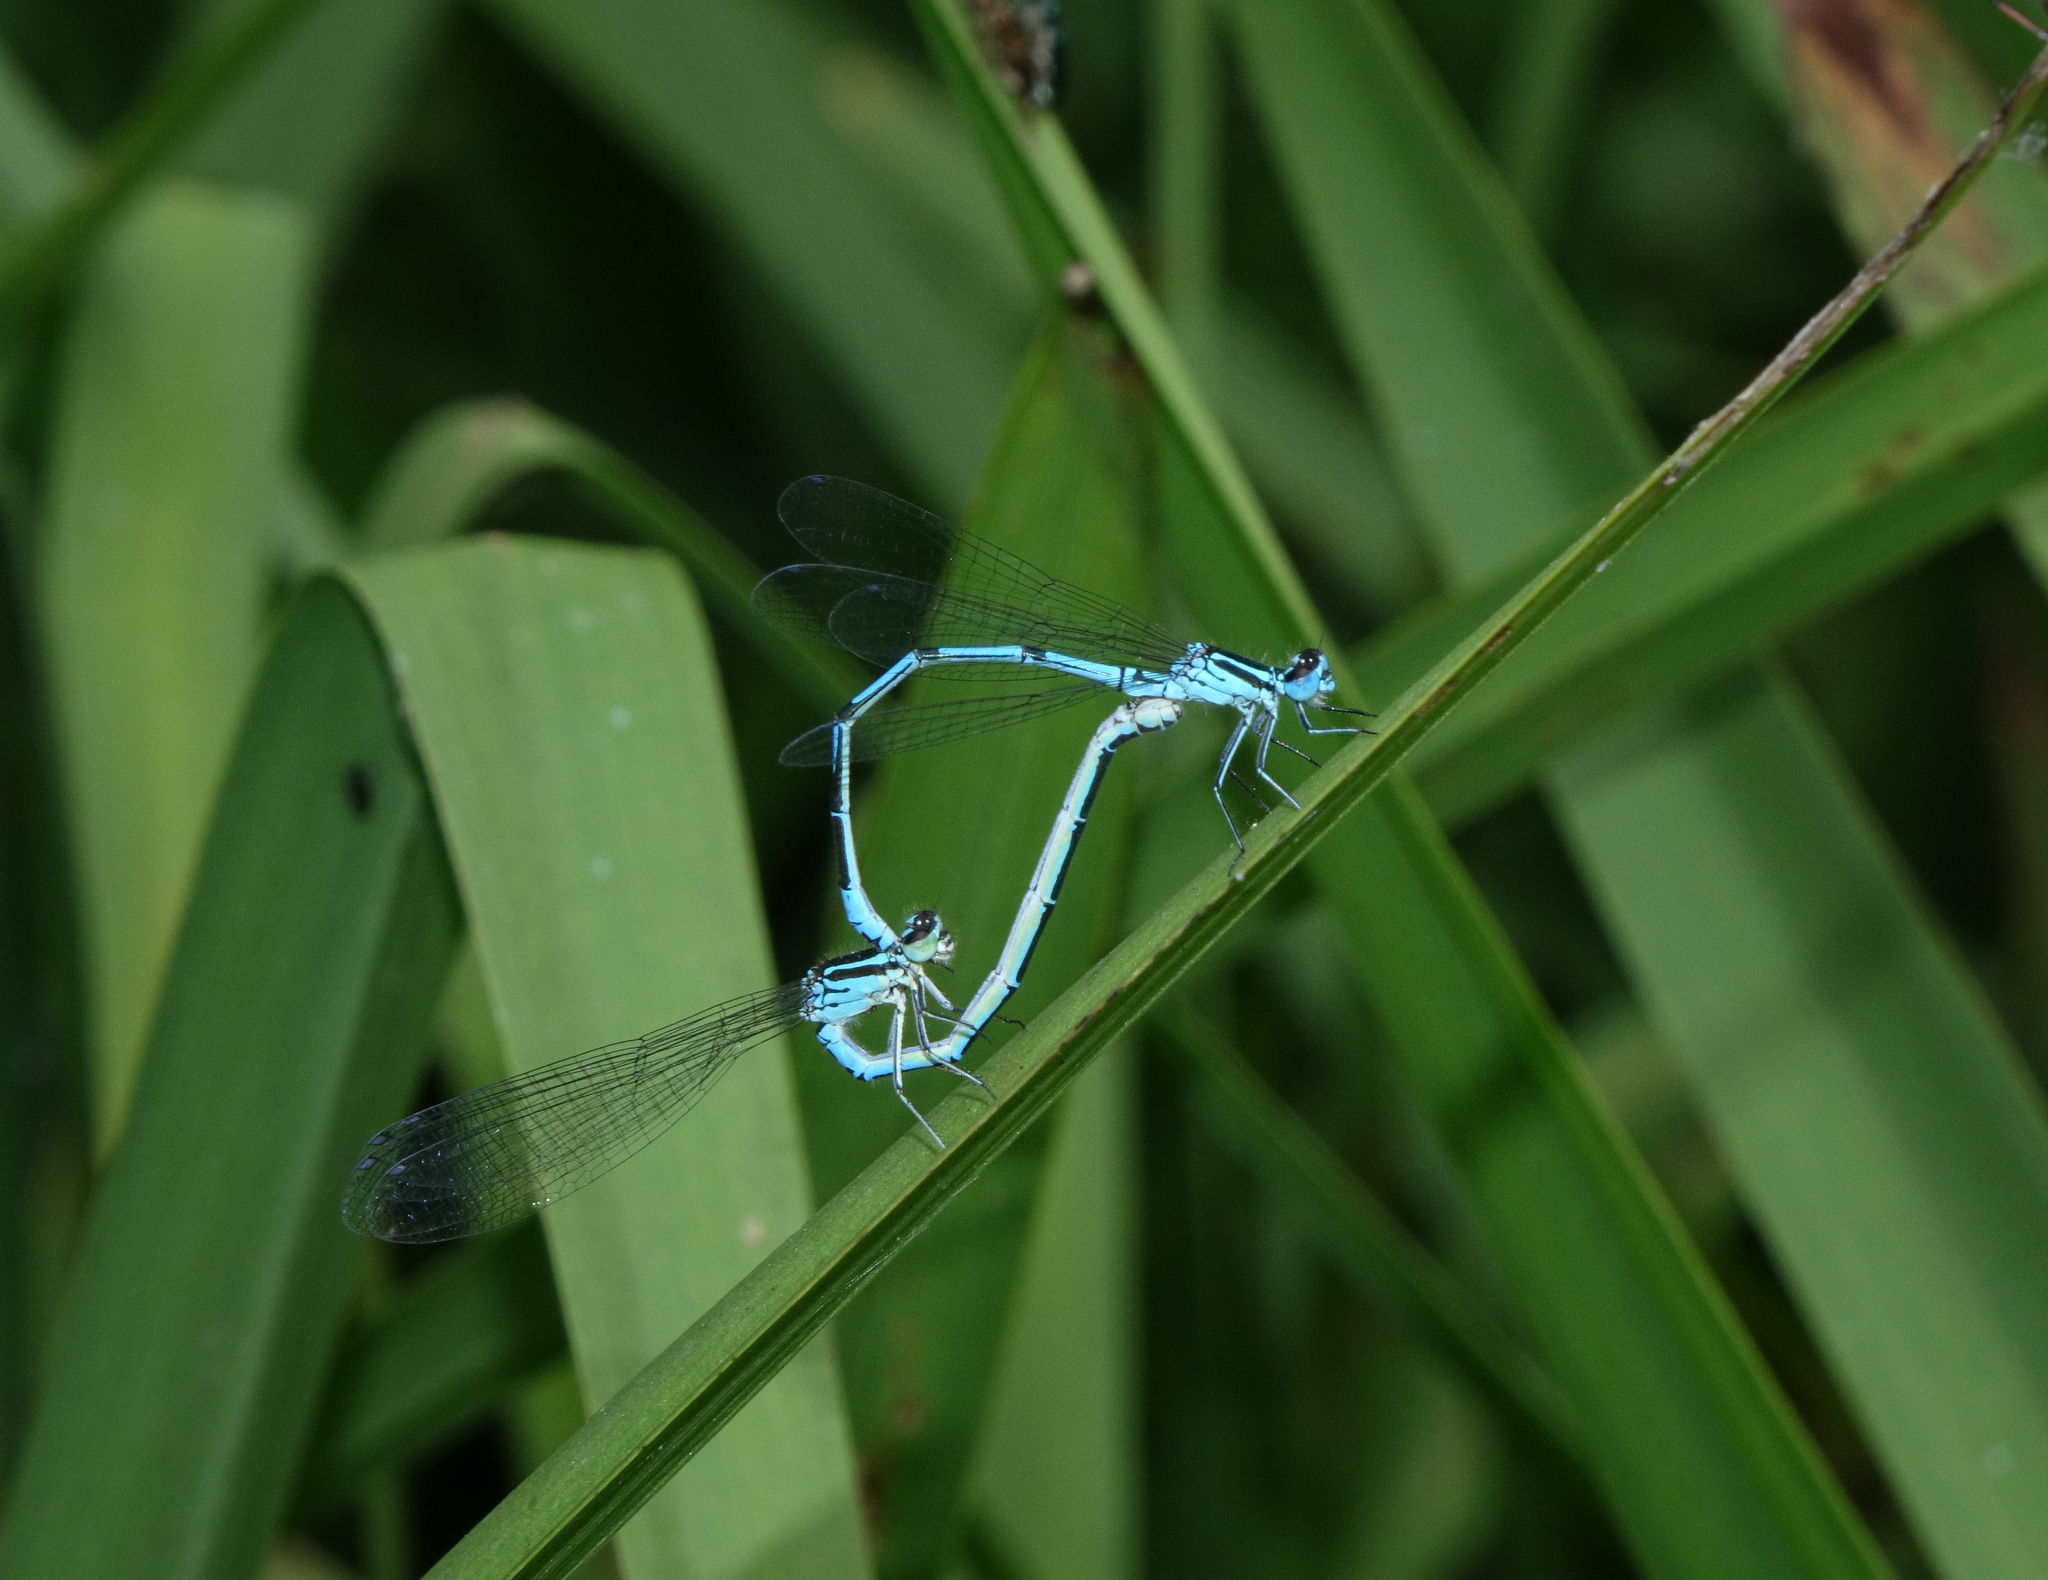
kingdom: Animalia
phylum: Arthropoda
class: Insecta
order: Odonata
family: Coenagrionidae
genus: Coenagrion
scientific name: Coenagrion puella
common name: Azure damselfly
